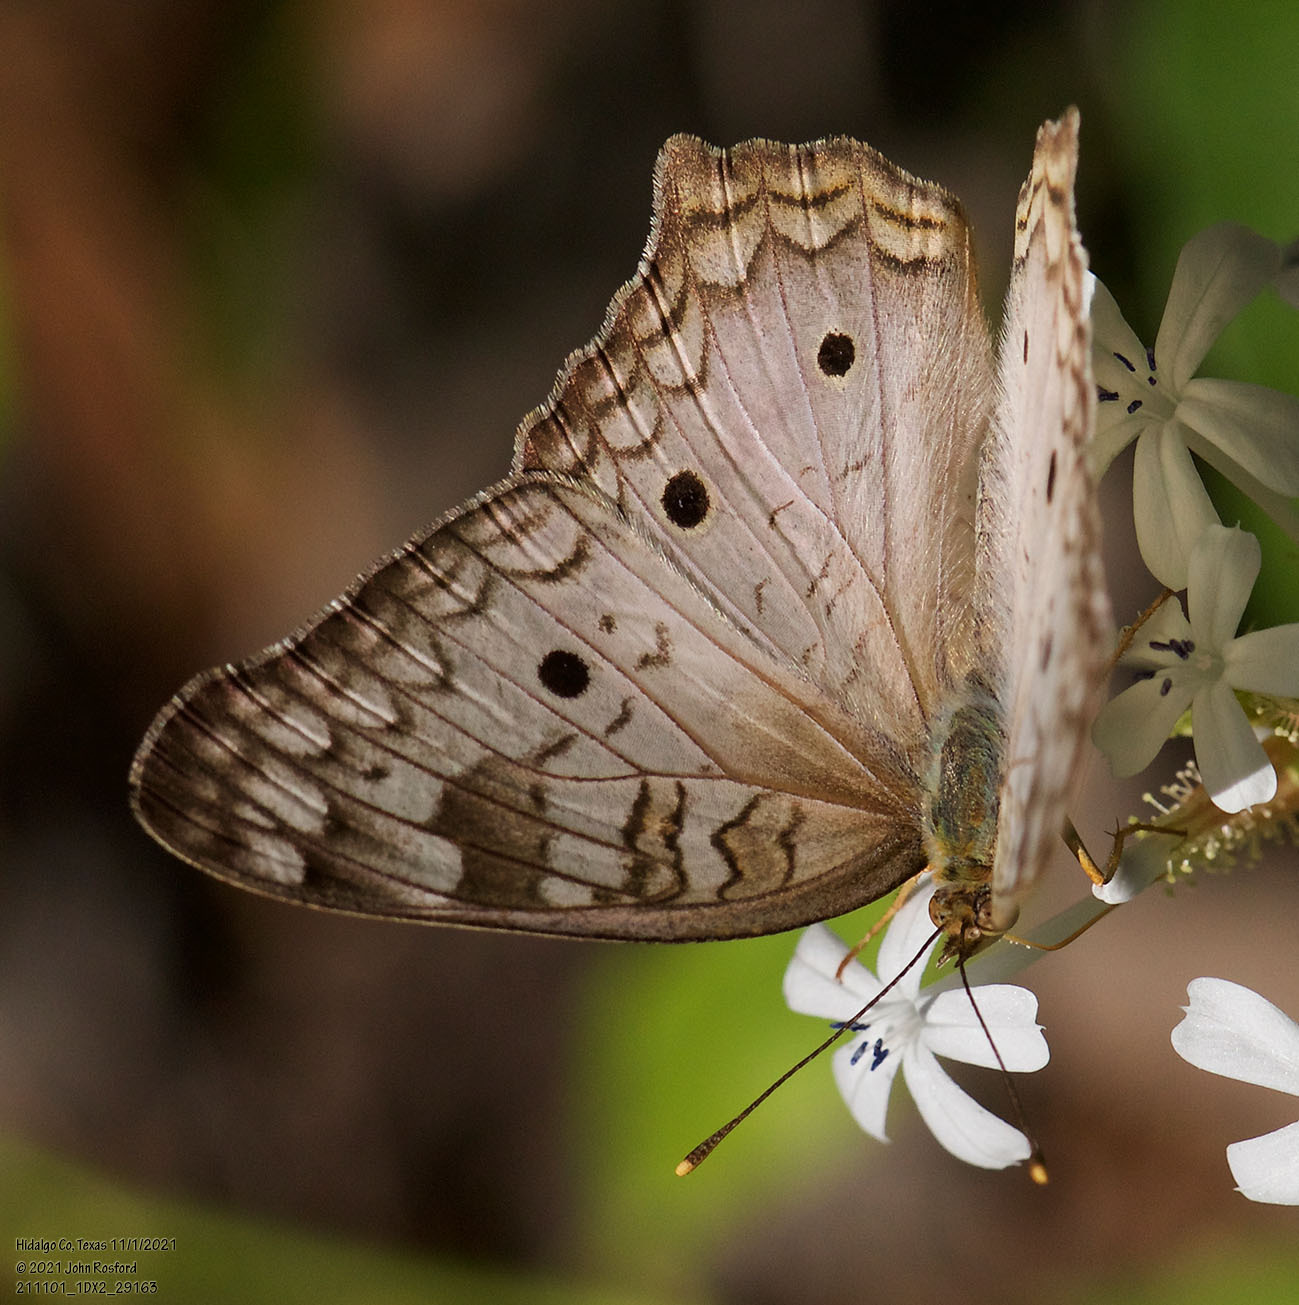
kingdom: Animalia
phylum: Arthropoda
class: Insecta
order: Lepidoptera
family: Nymphalidae
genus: Anartia
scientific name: Anartia jatrophae
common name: White peacock
